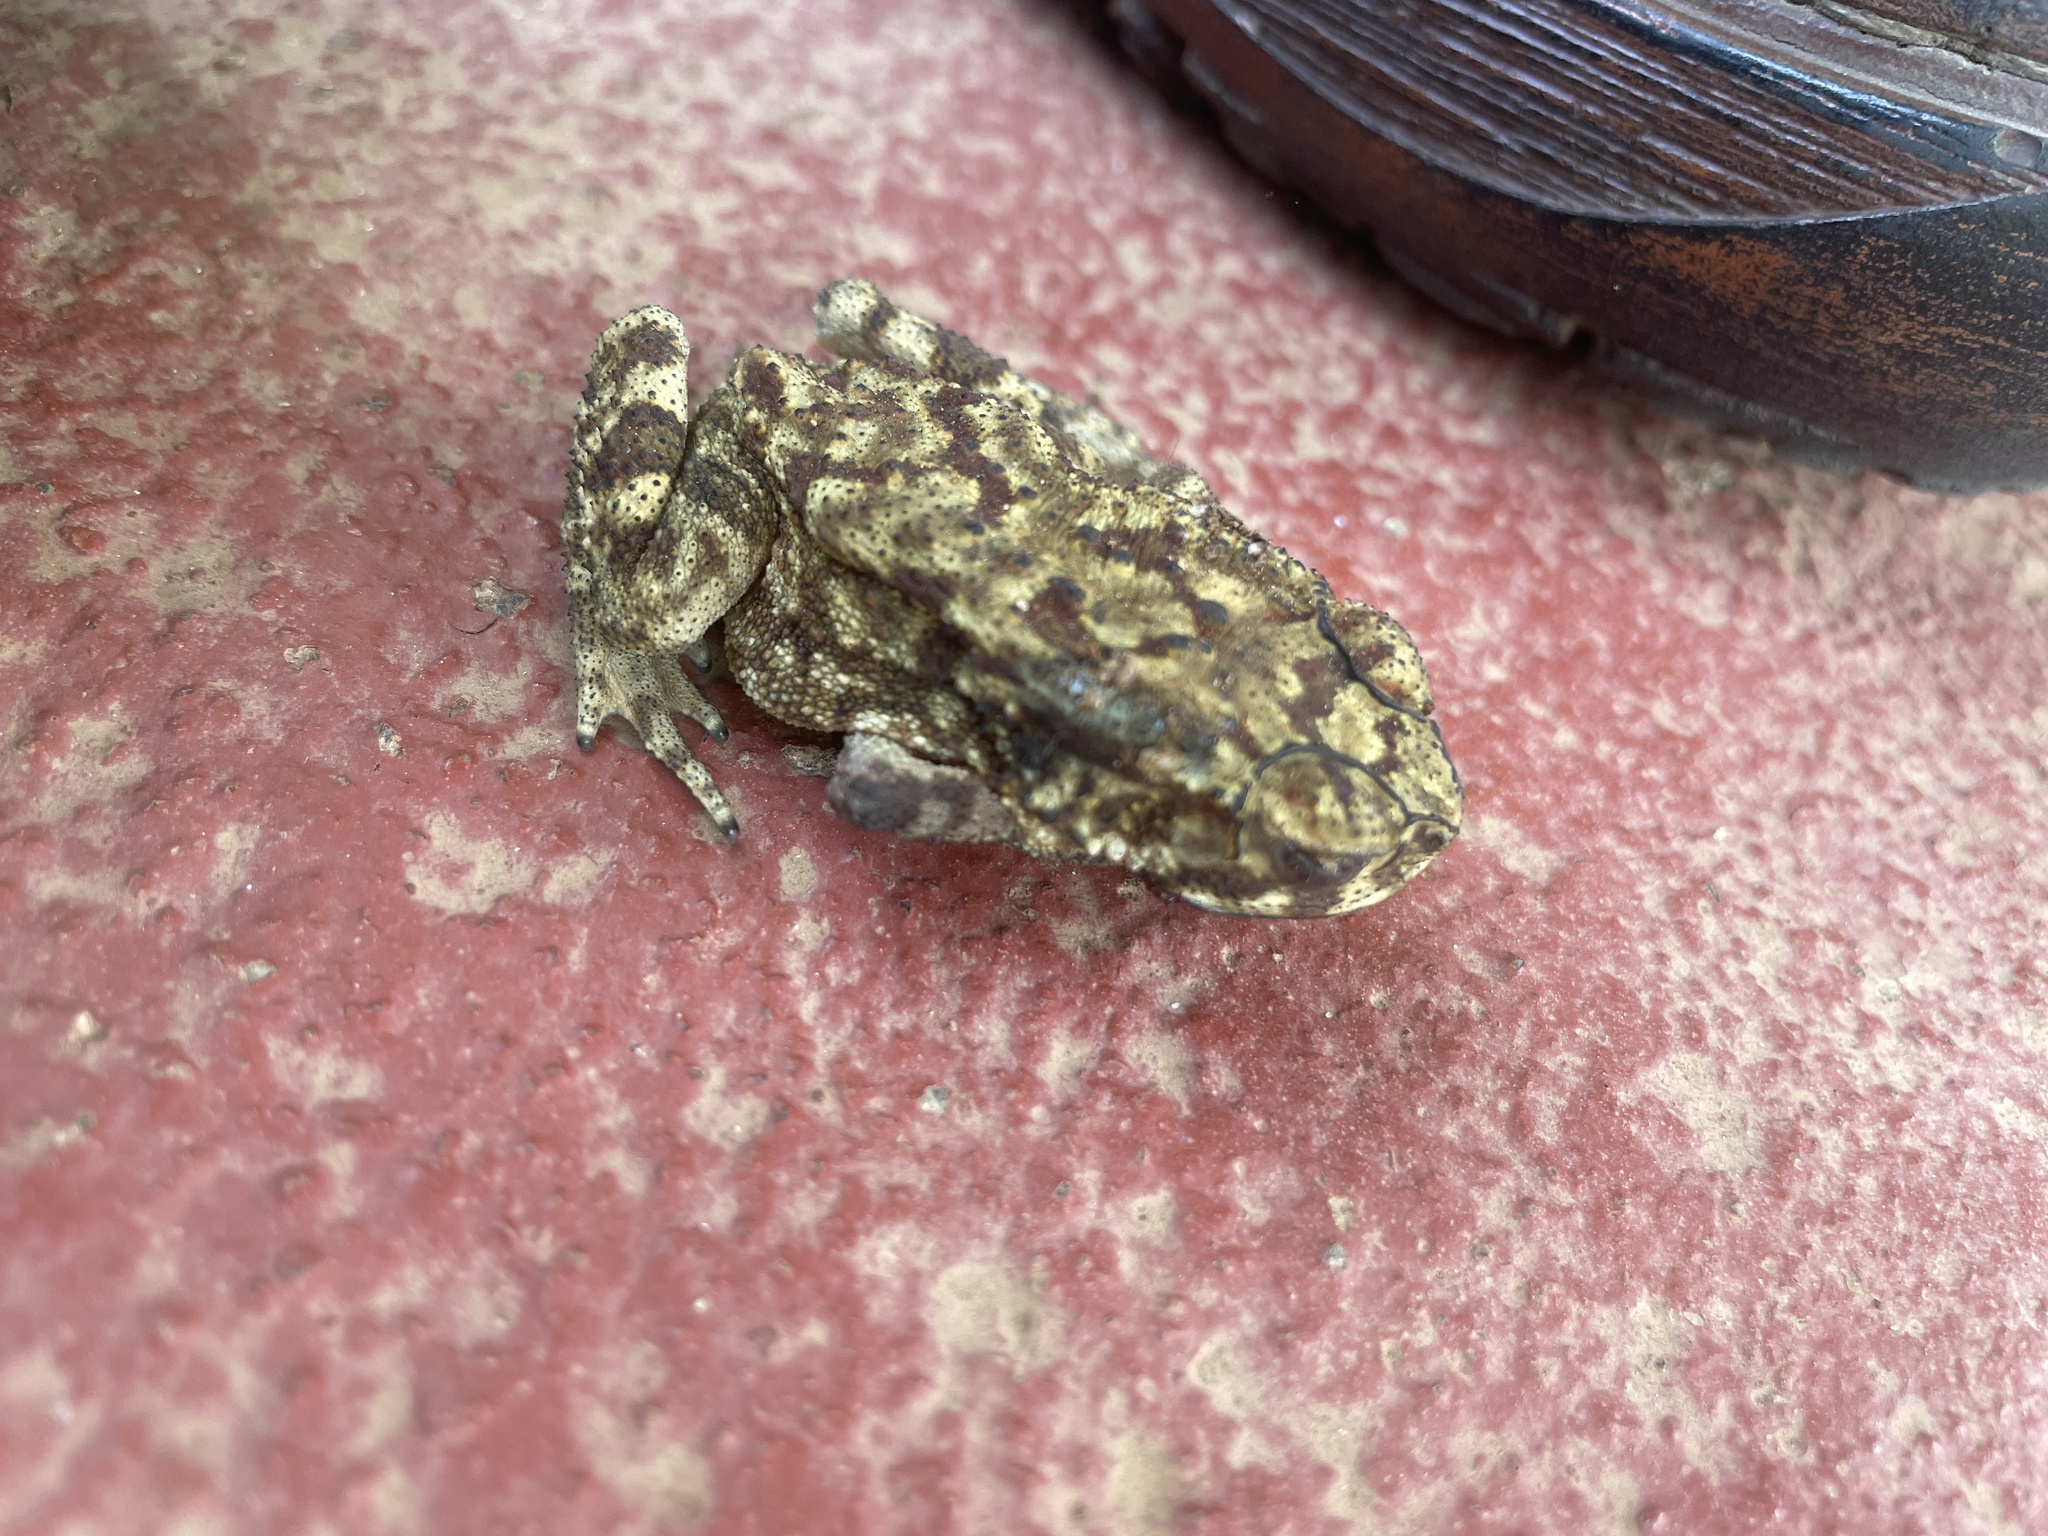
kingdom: Animalia
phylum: Chordata
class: Amphibia
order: Anura
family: Bufonidae
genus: Duttaphrynus
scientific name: Duttaphrynus melanostictus
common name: Common sunda toad
